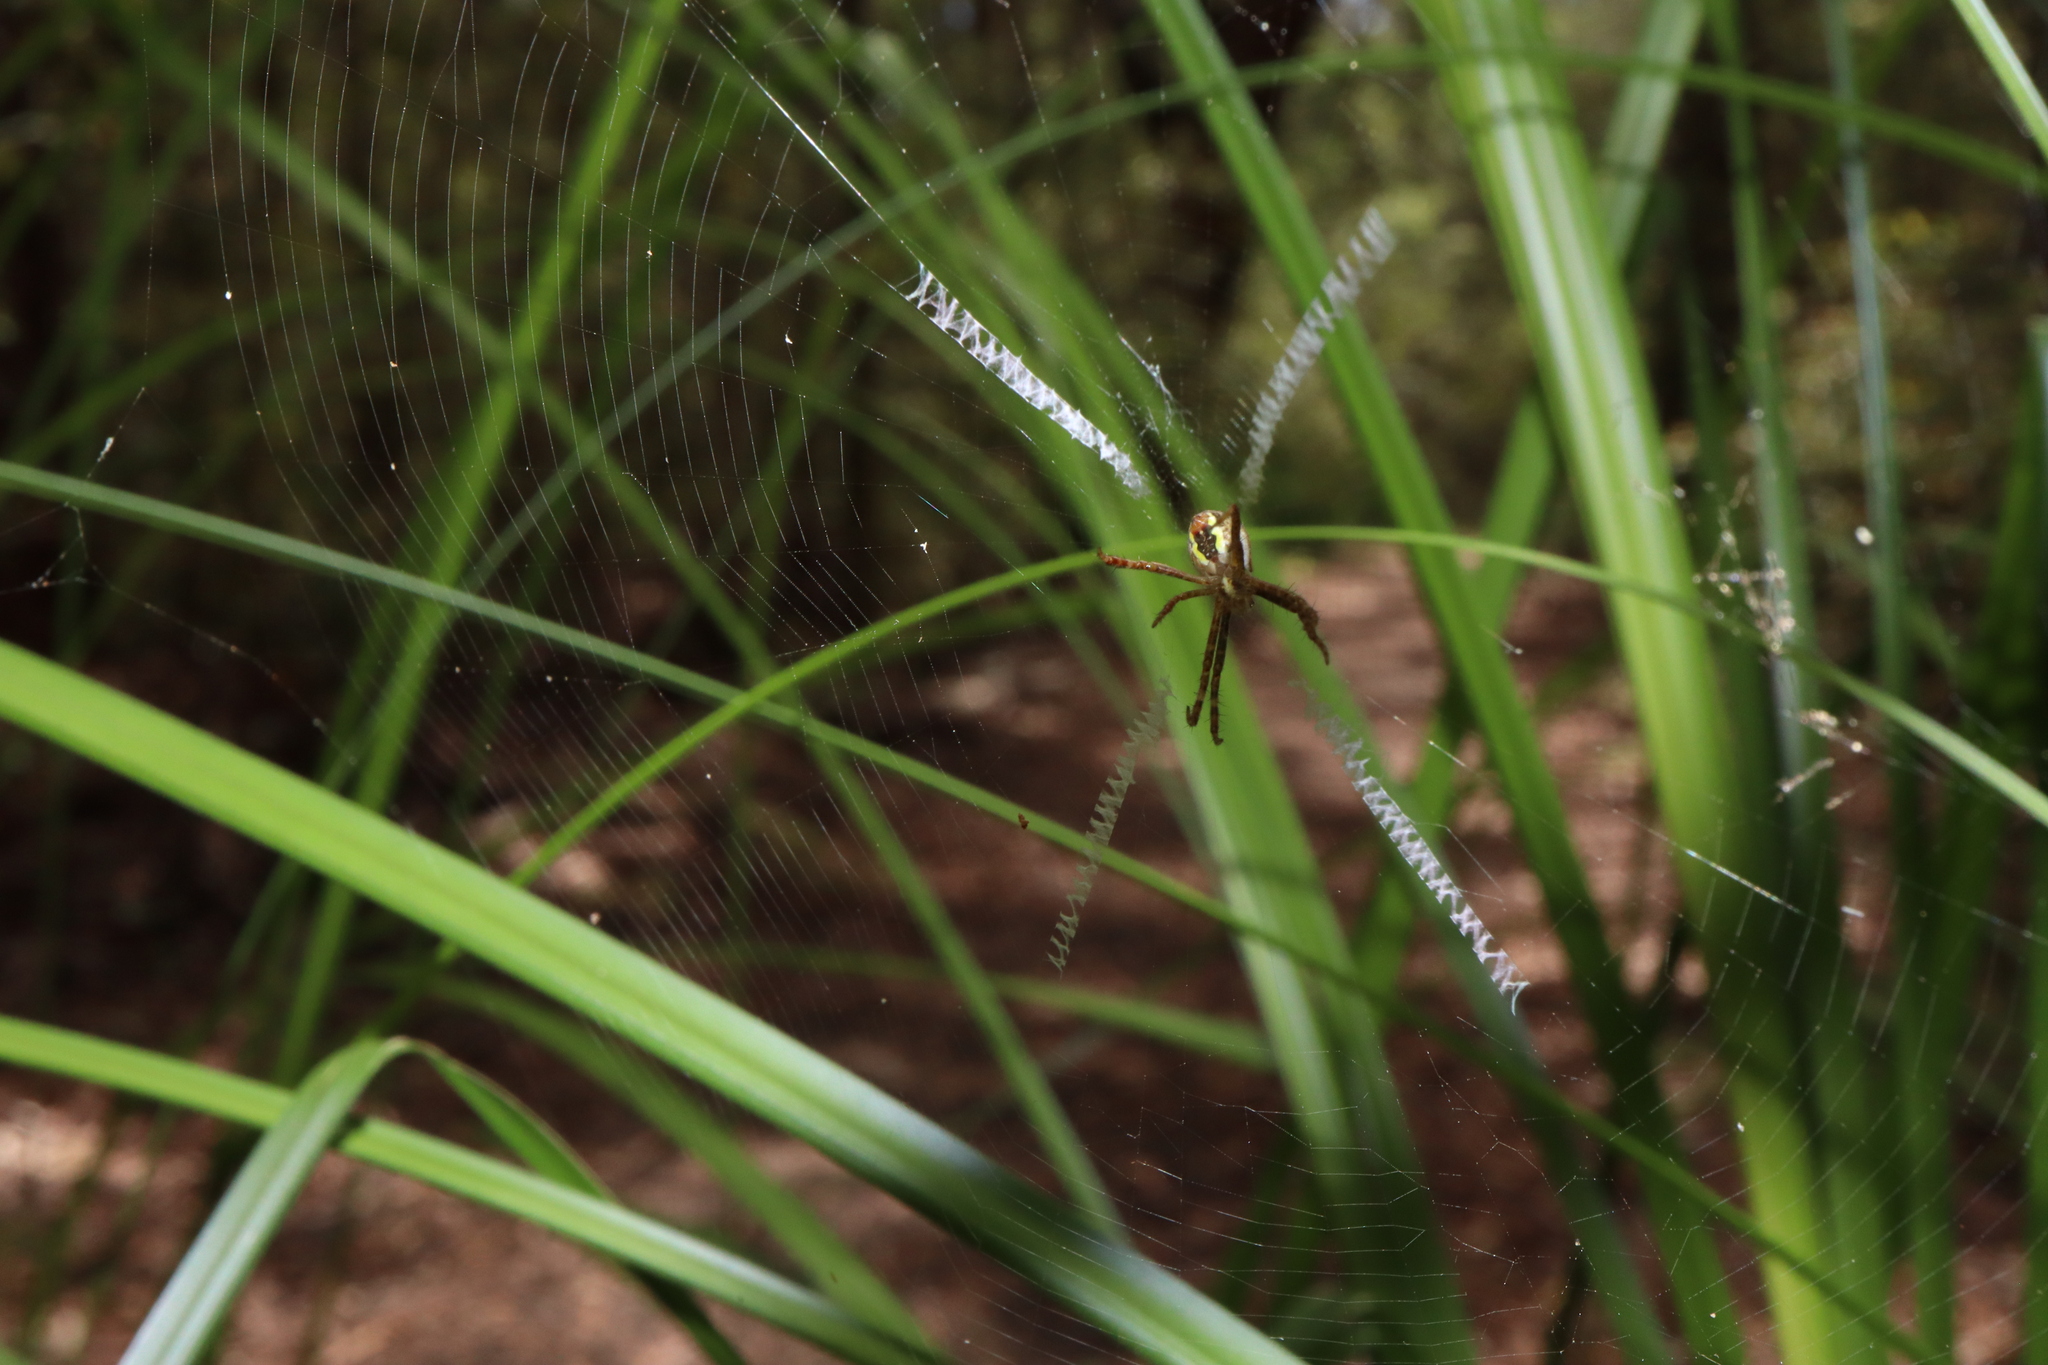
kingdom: Animalia
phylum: Arthropoda
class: Arachnida
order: Araneae
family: Araneidae
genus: Argiope
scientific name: Argiope keyserlingi
